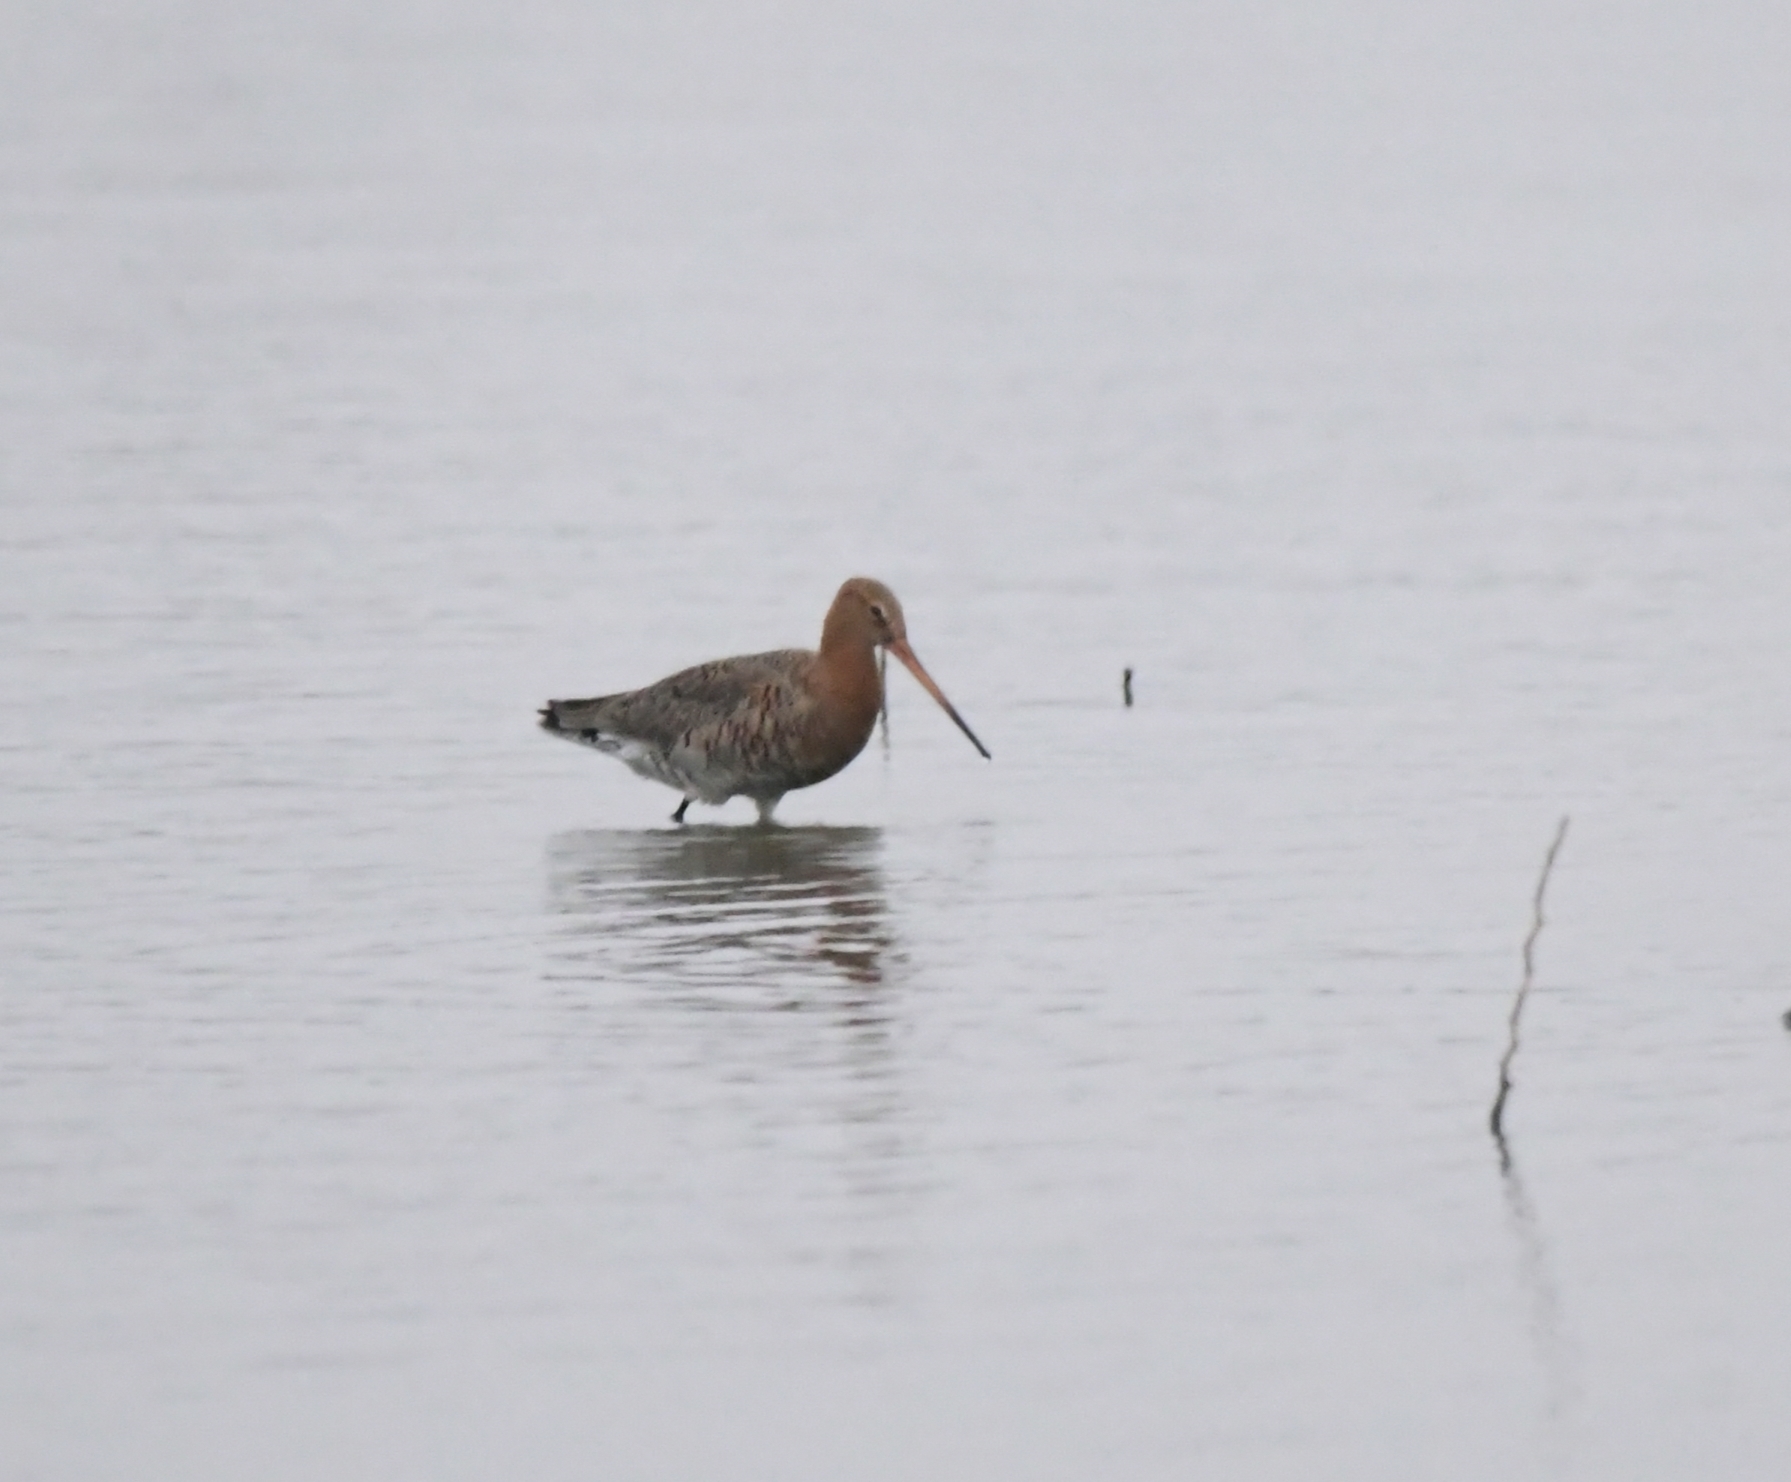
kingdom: Animalia
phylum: Chordata
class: Aves
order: Charadriiformes
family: Scolopacidae
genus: Limosa
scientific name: Limosa limosa
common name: Black-tailed godwit
